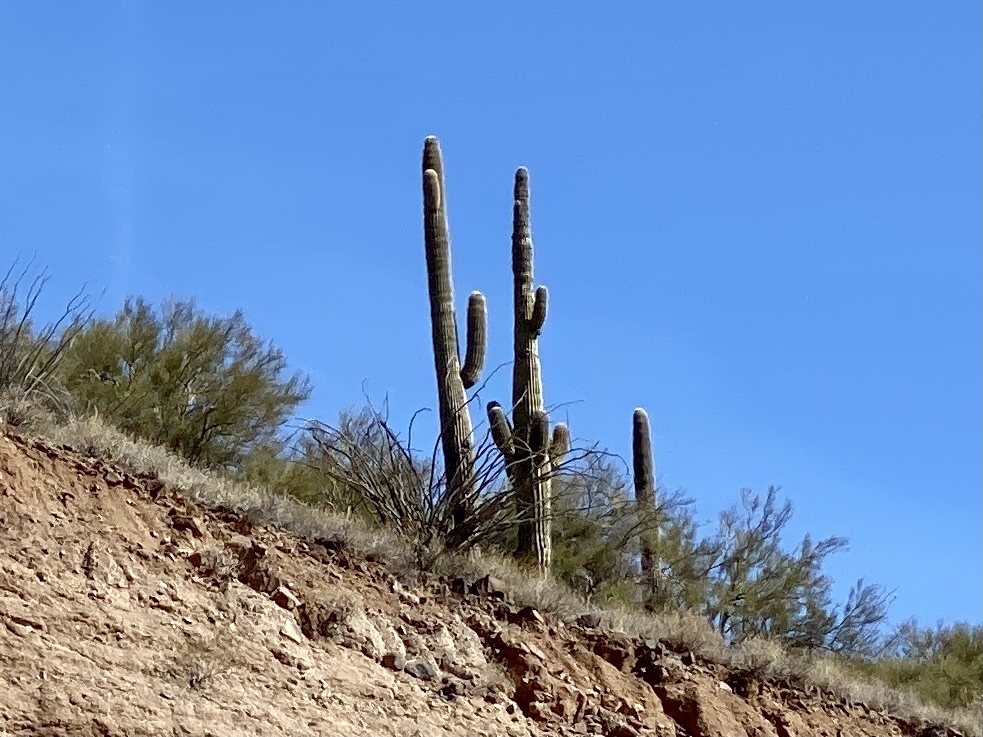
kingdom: Plantae
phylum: Tracheophyta
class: Magnoliopsida
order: Caryophyllales
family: Cactaceae
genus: Carnegiea
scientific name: Carnegiea gigantea
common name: Saguaro
